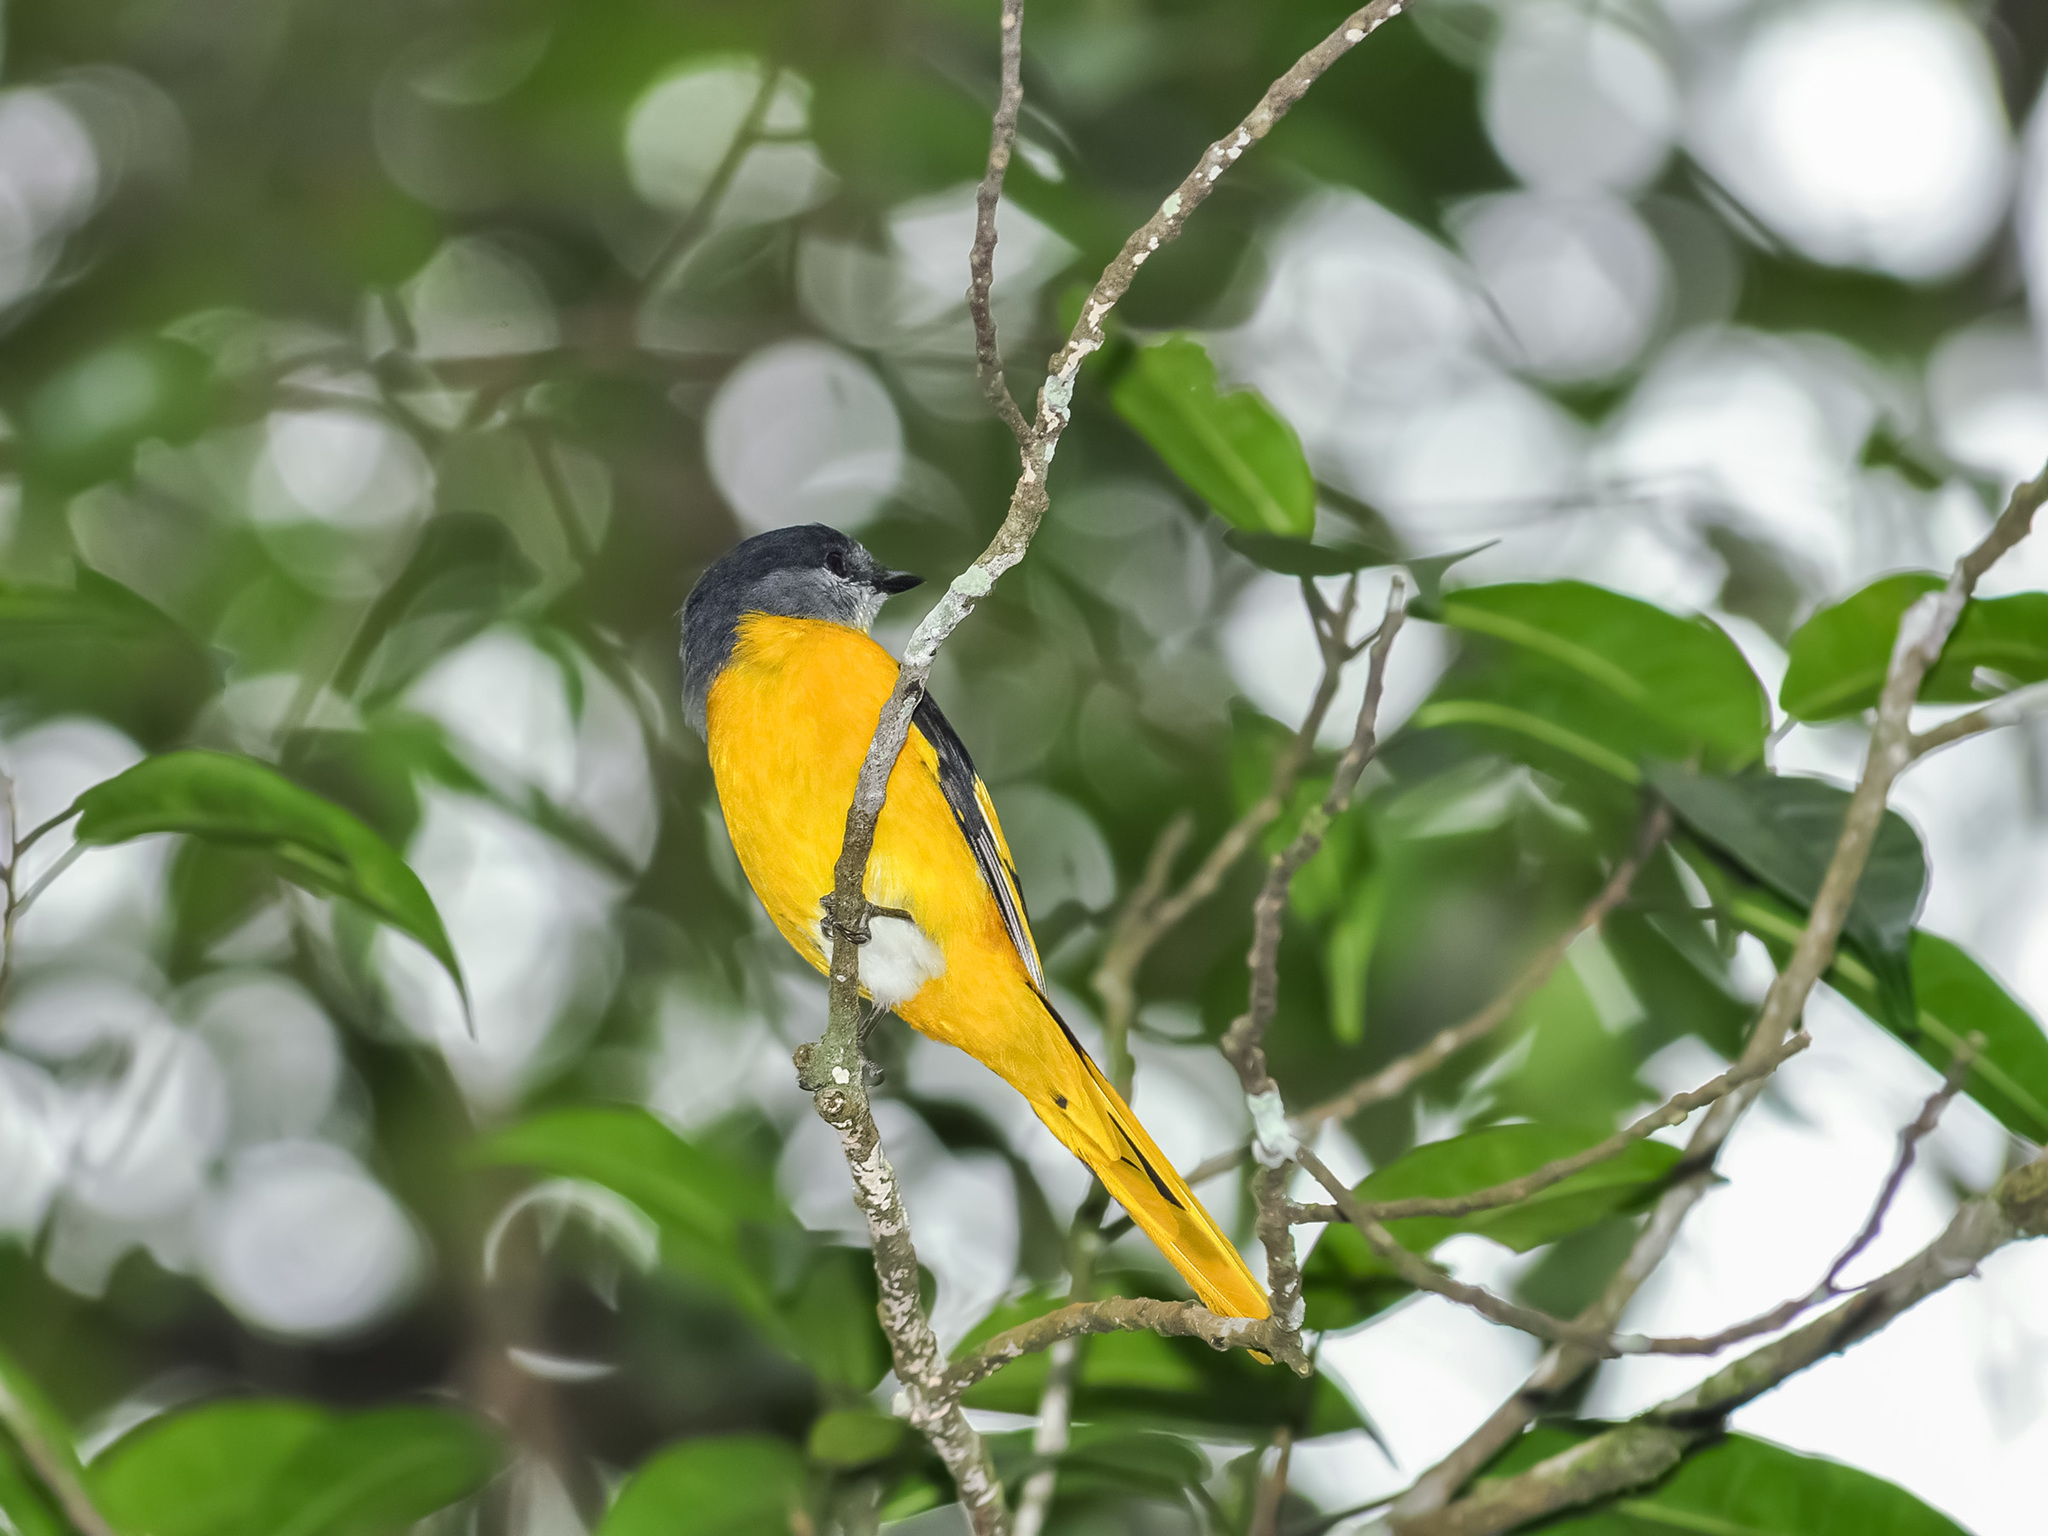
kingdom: Animalia
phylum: Chordata
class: Aves
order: Passeriformes
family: Campephagidae
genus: Pericrocotus
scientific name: Pericrocotus solaris
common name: Grey-chinned minivet
